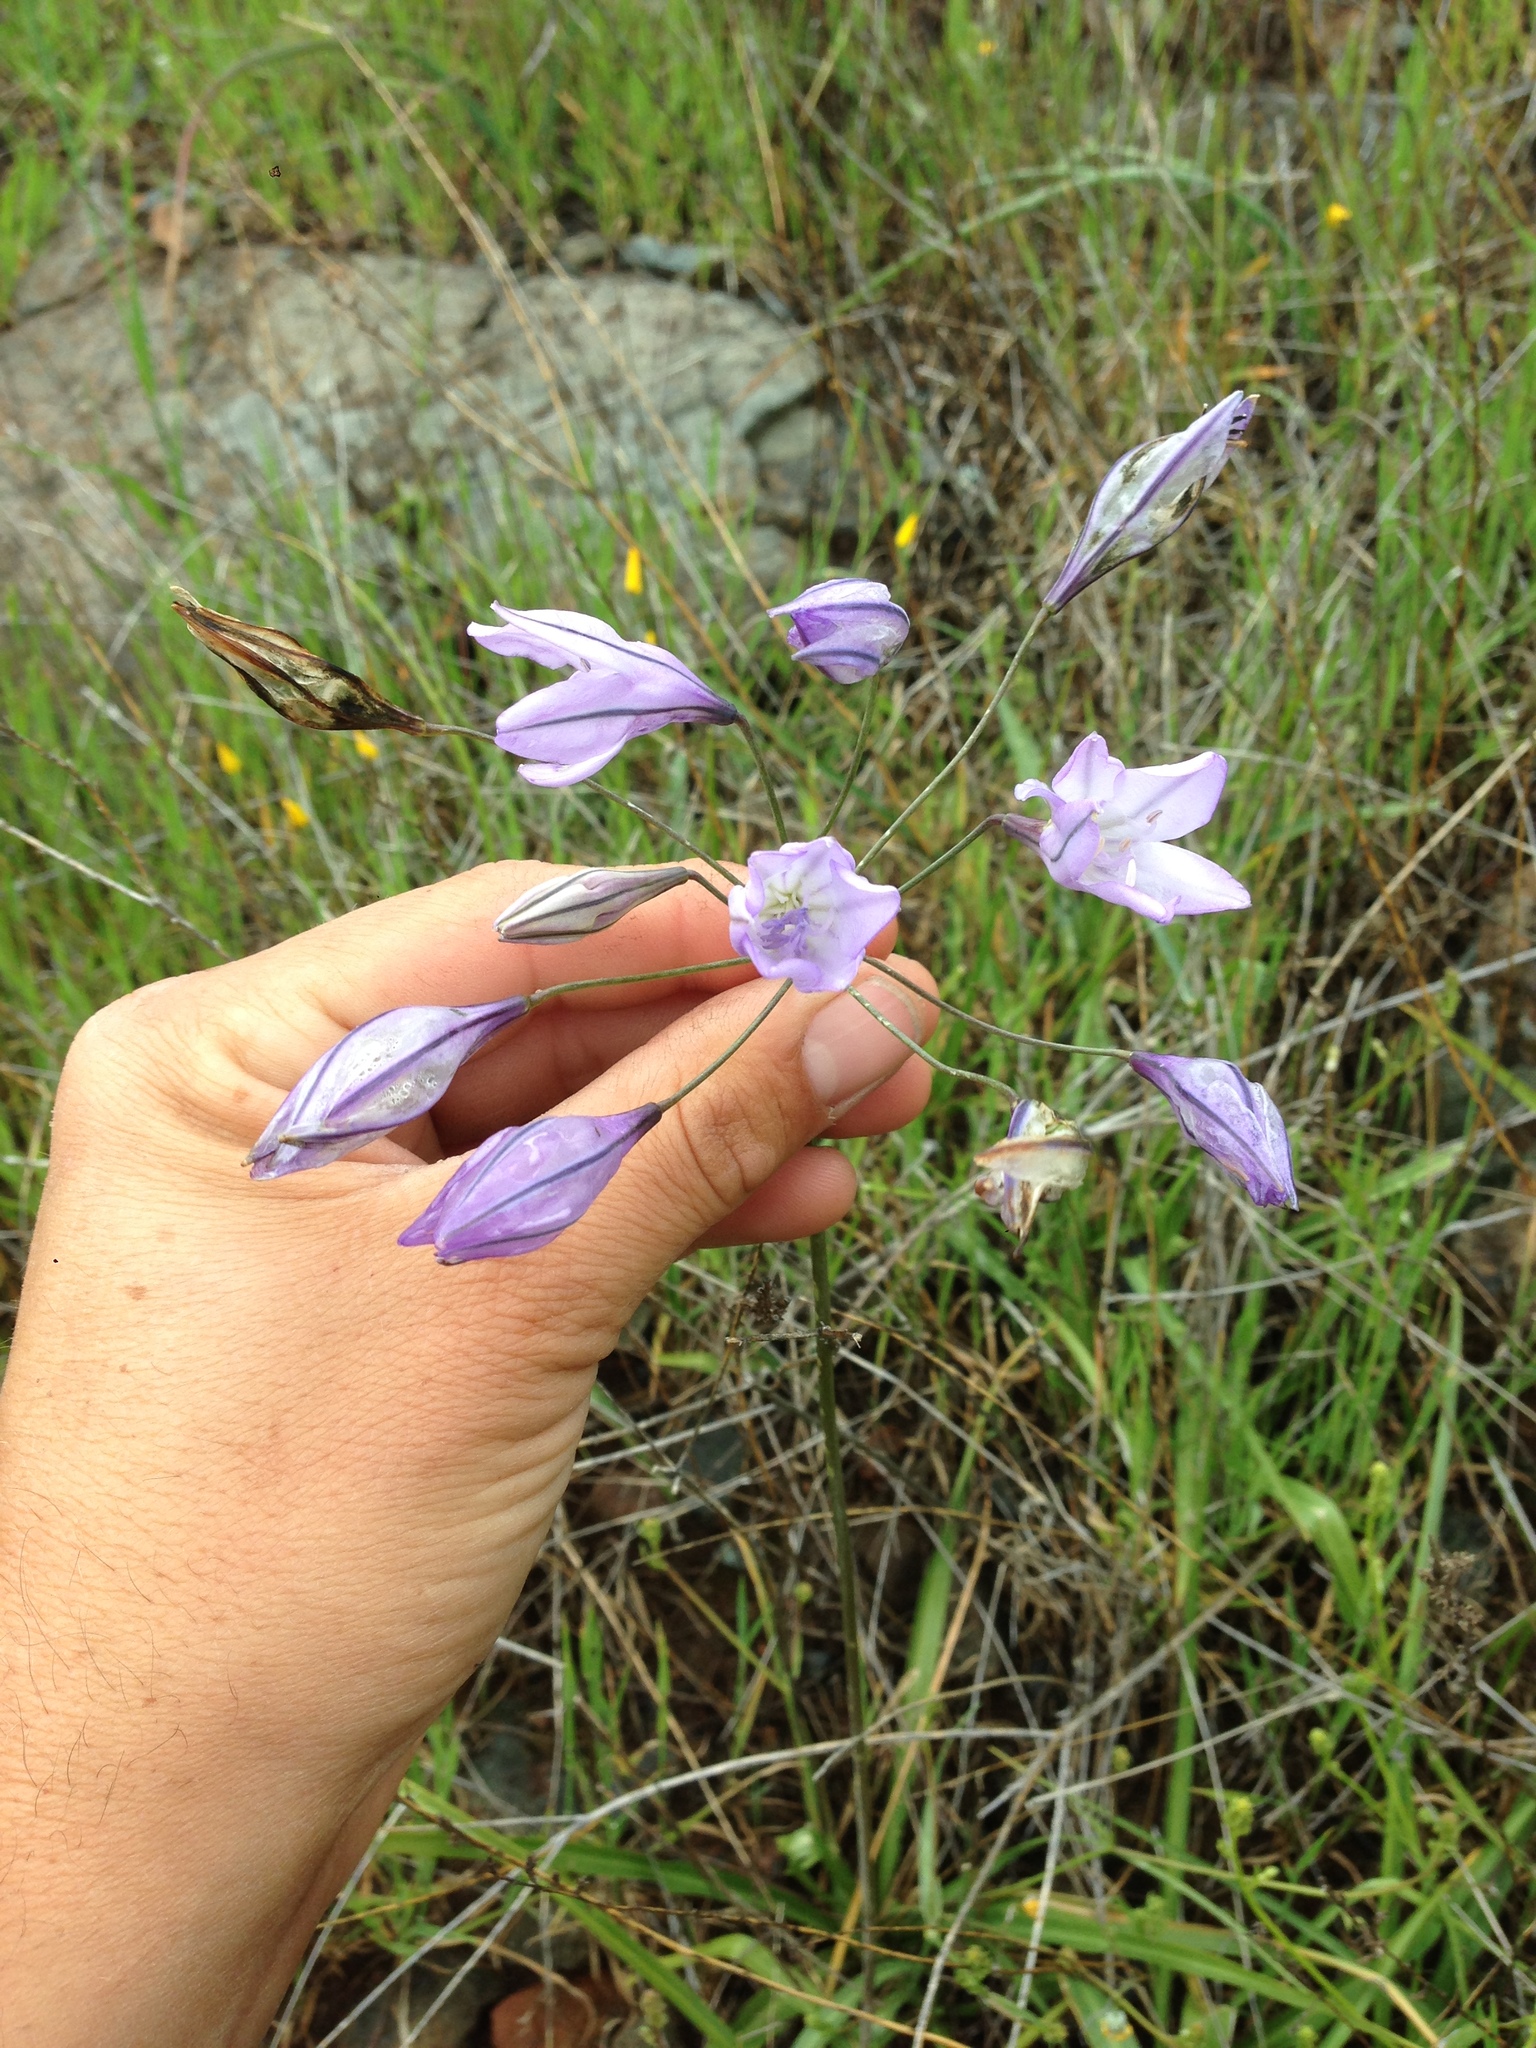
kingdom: Plantae
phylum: Tracheophyta
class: Liliopsida
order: Asparagales
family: Asparagaceae
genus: Triteleia
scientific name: Triteleia laxa
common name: Triplet-lily
